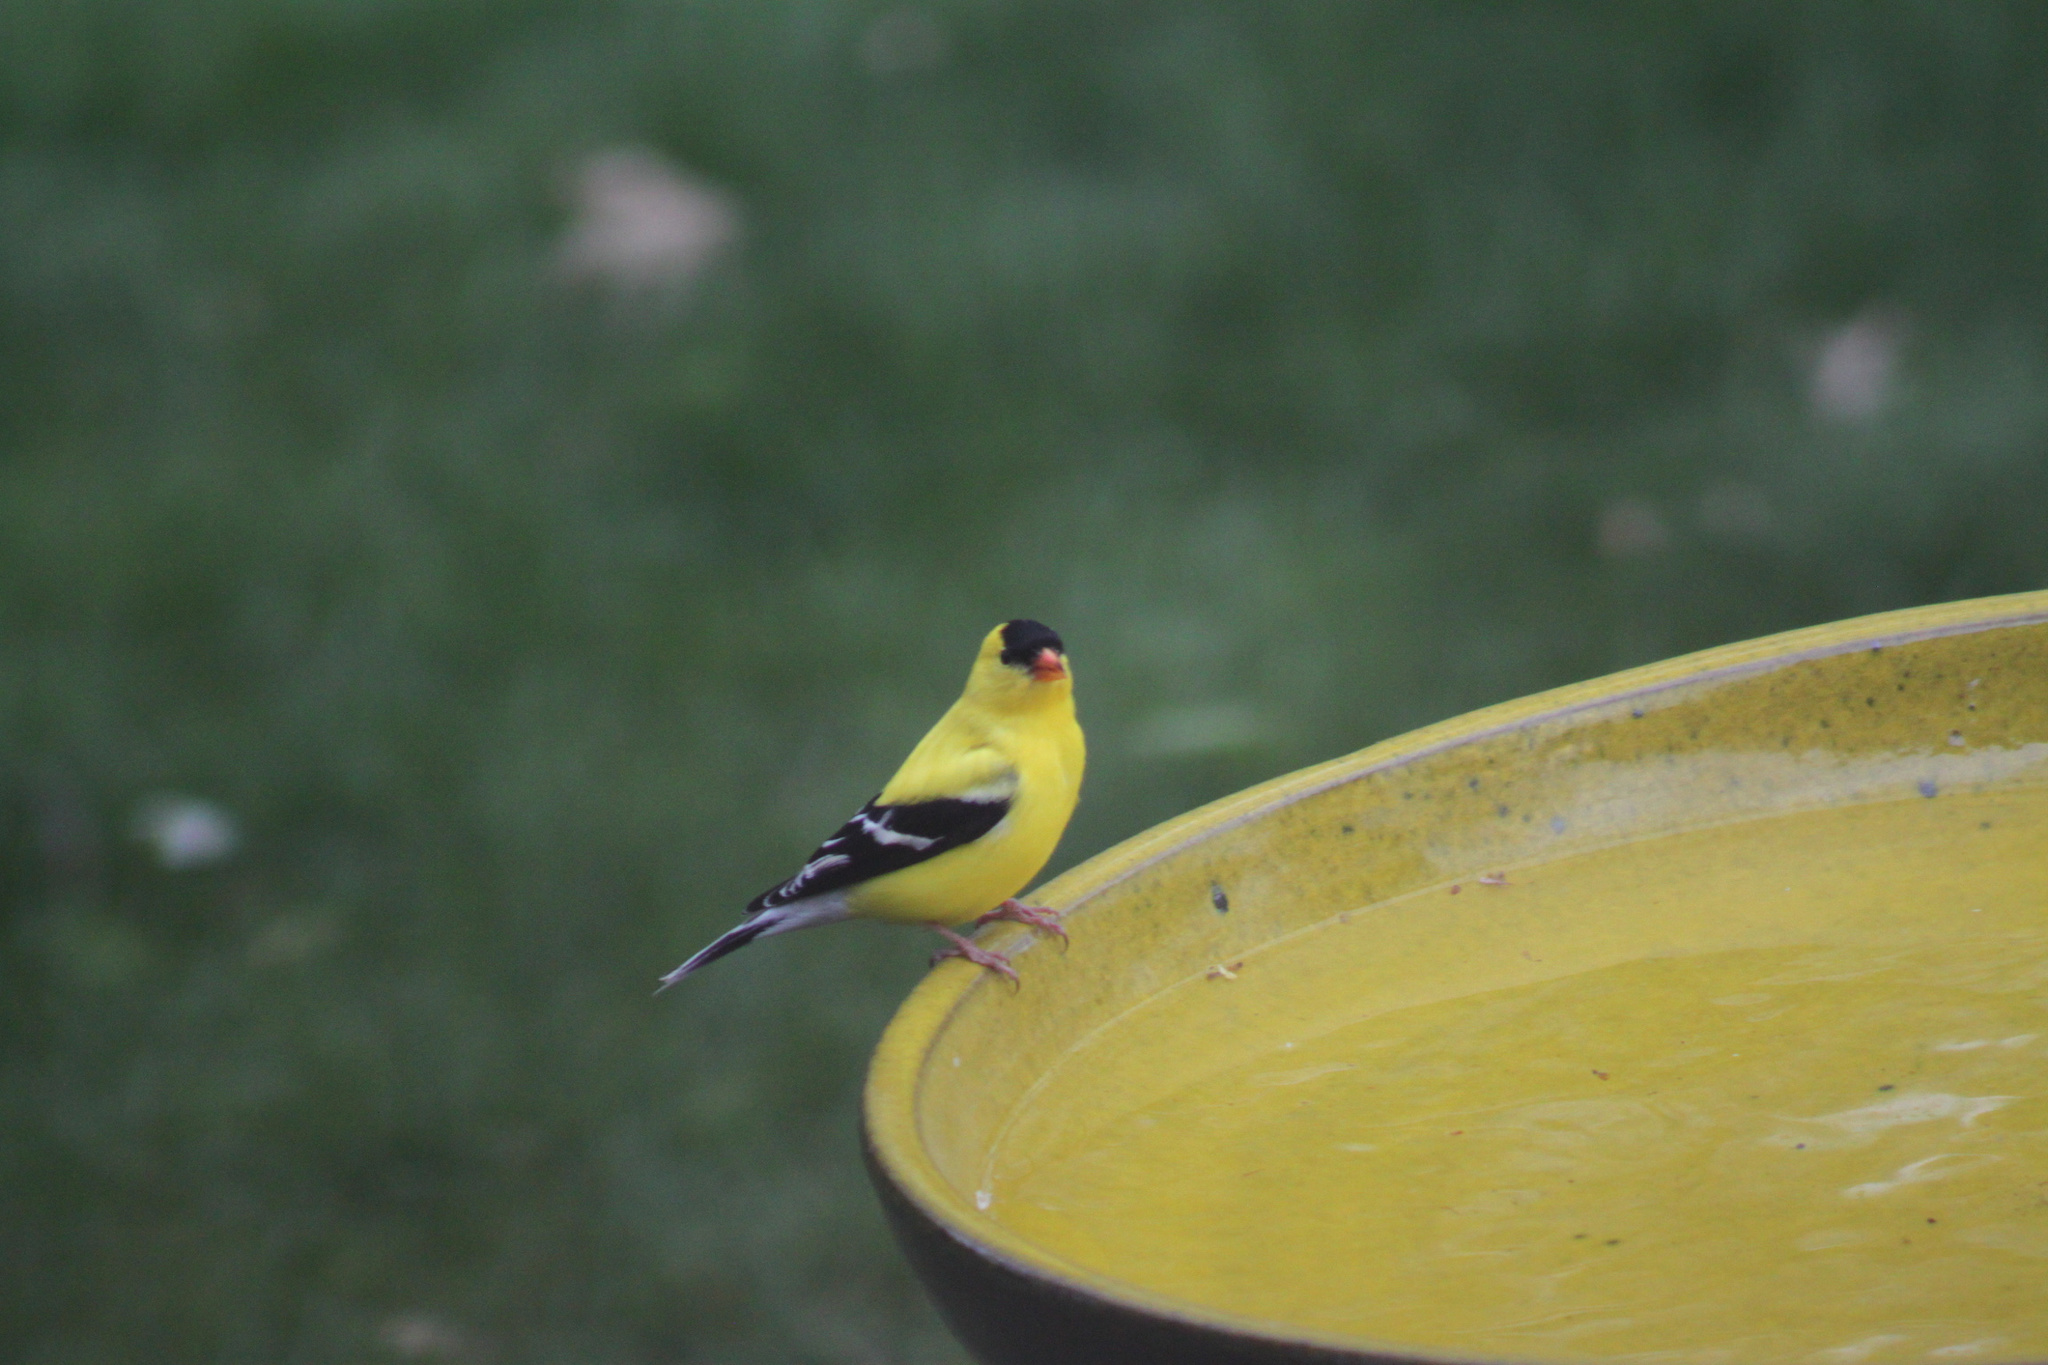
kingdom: Animalia
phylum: Chordata
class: Aves
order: Passeriformes
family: Fringillidae
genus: Spinus
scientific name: Spinus tristis
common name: American goldfinch
